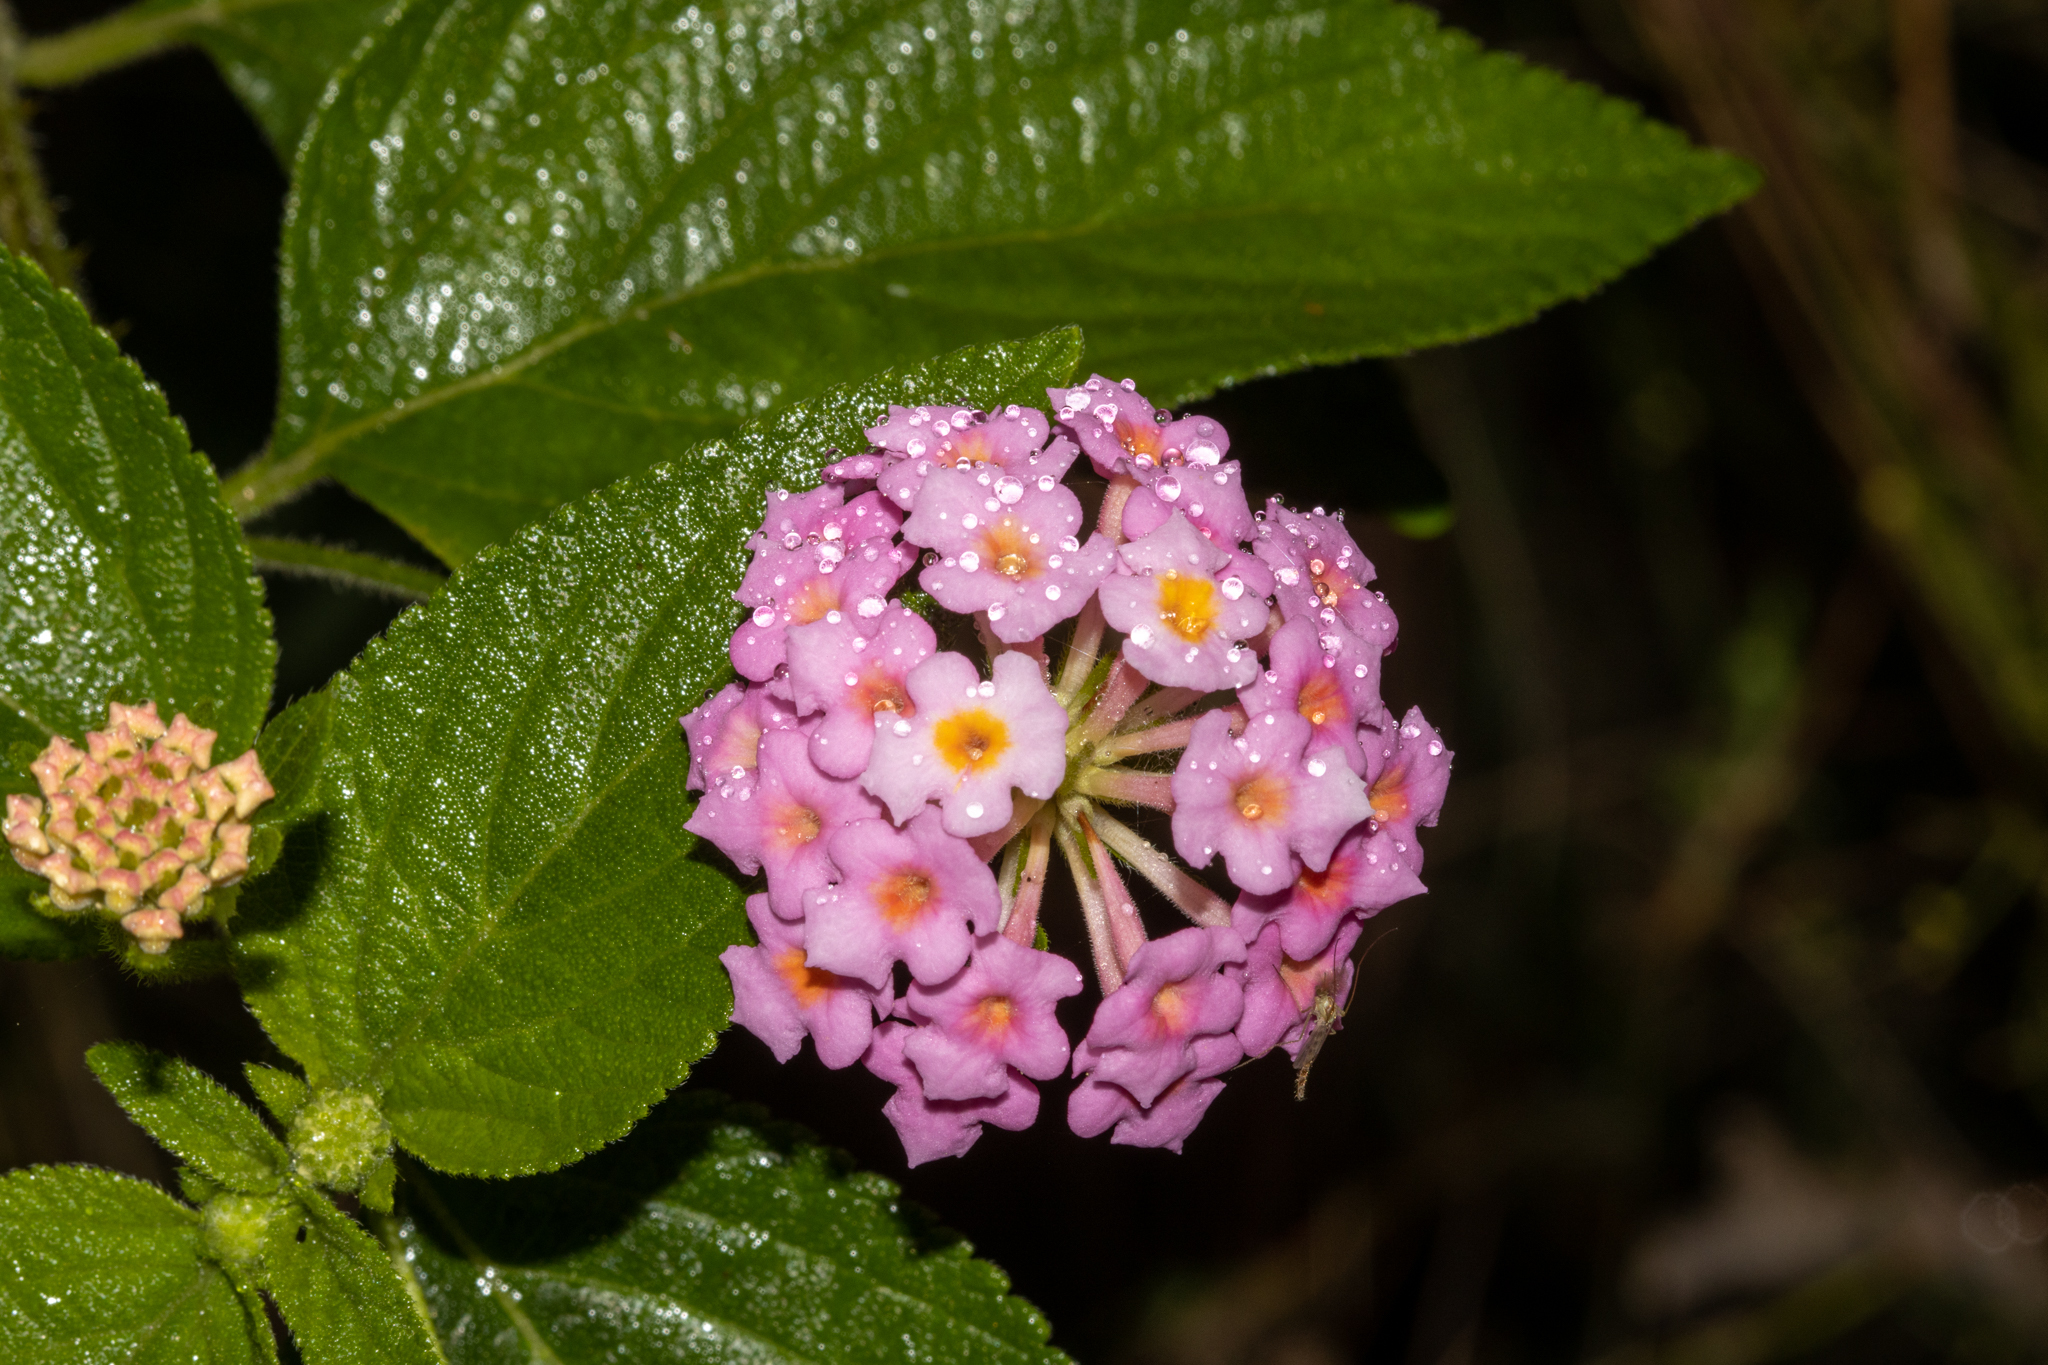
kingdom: Plantae
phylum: Tracheophyta
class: Magnoliopsida
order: Lamiales
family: Verbenaceae
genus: Lantana
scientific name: Lantana camara
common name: Lantana
